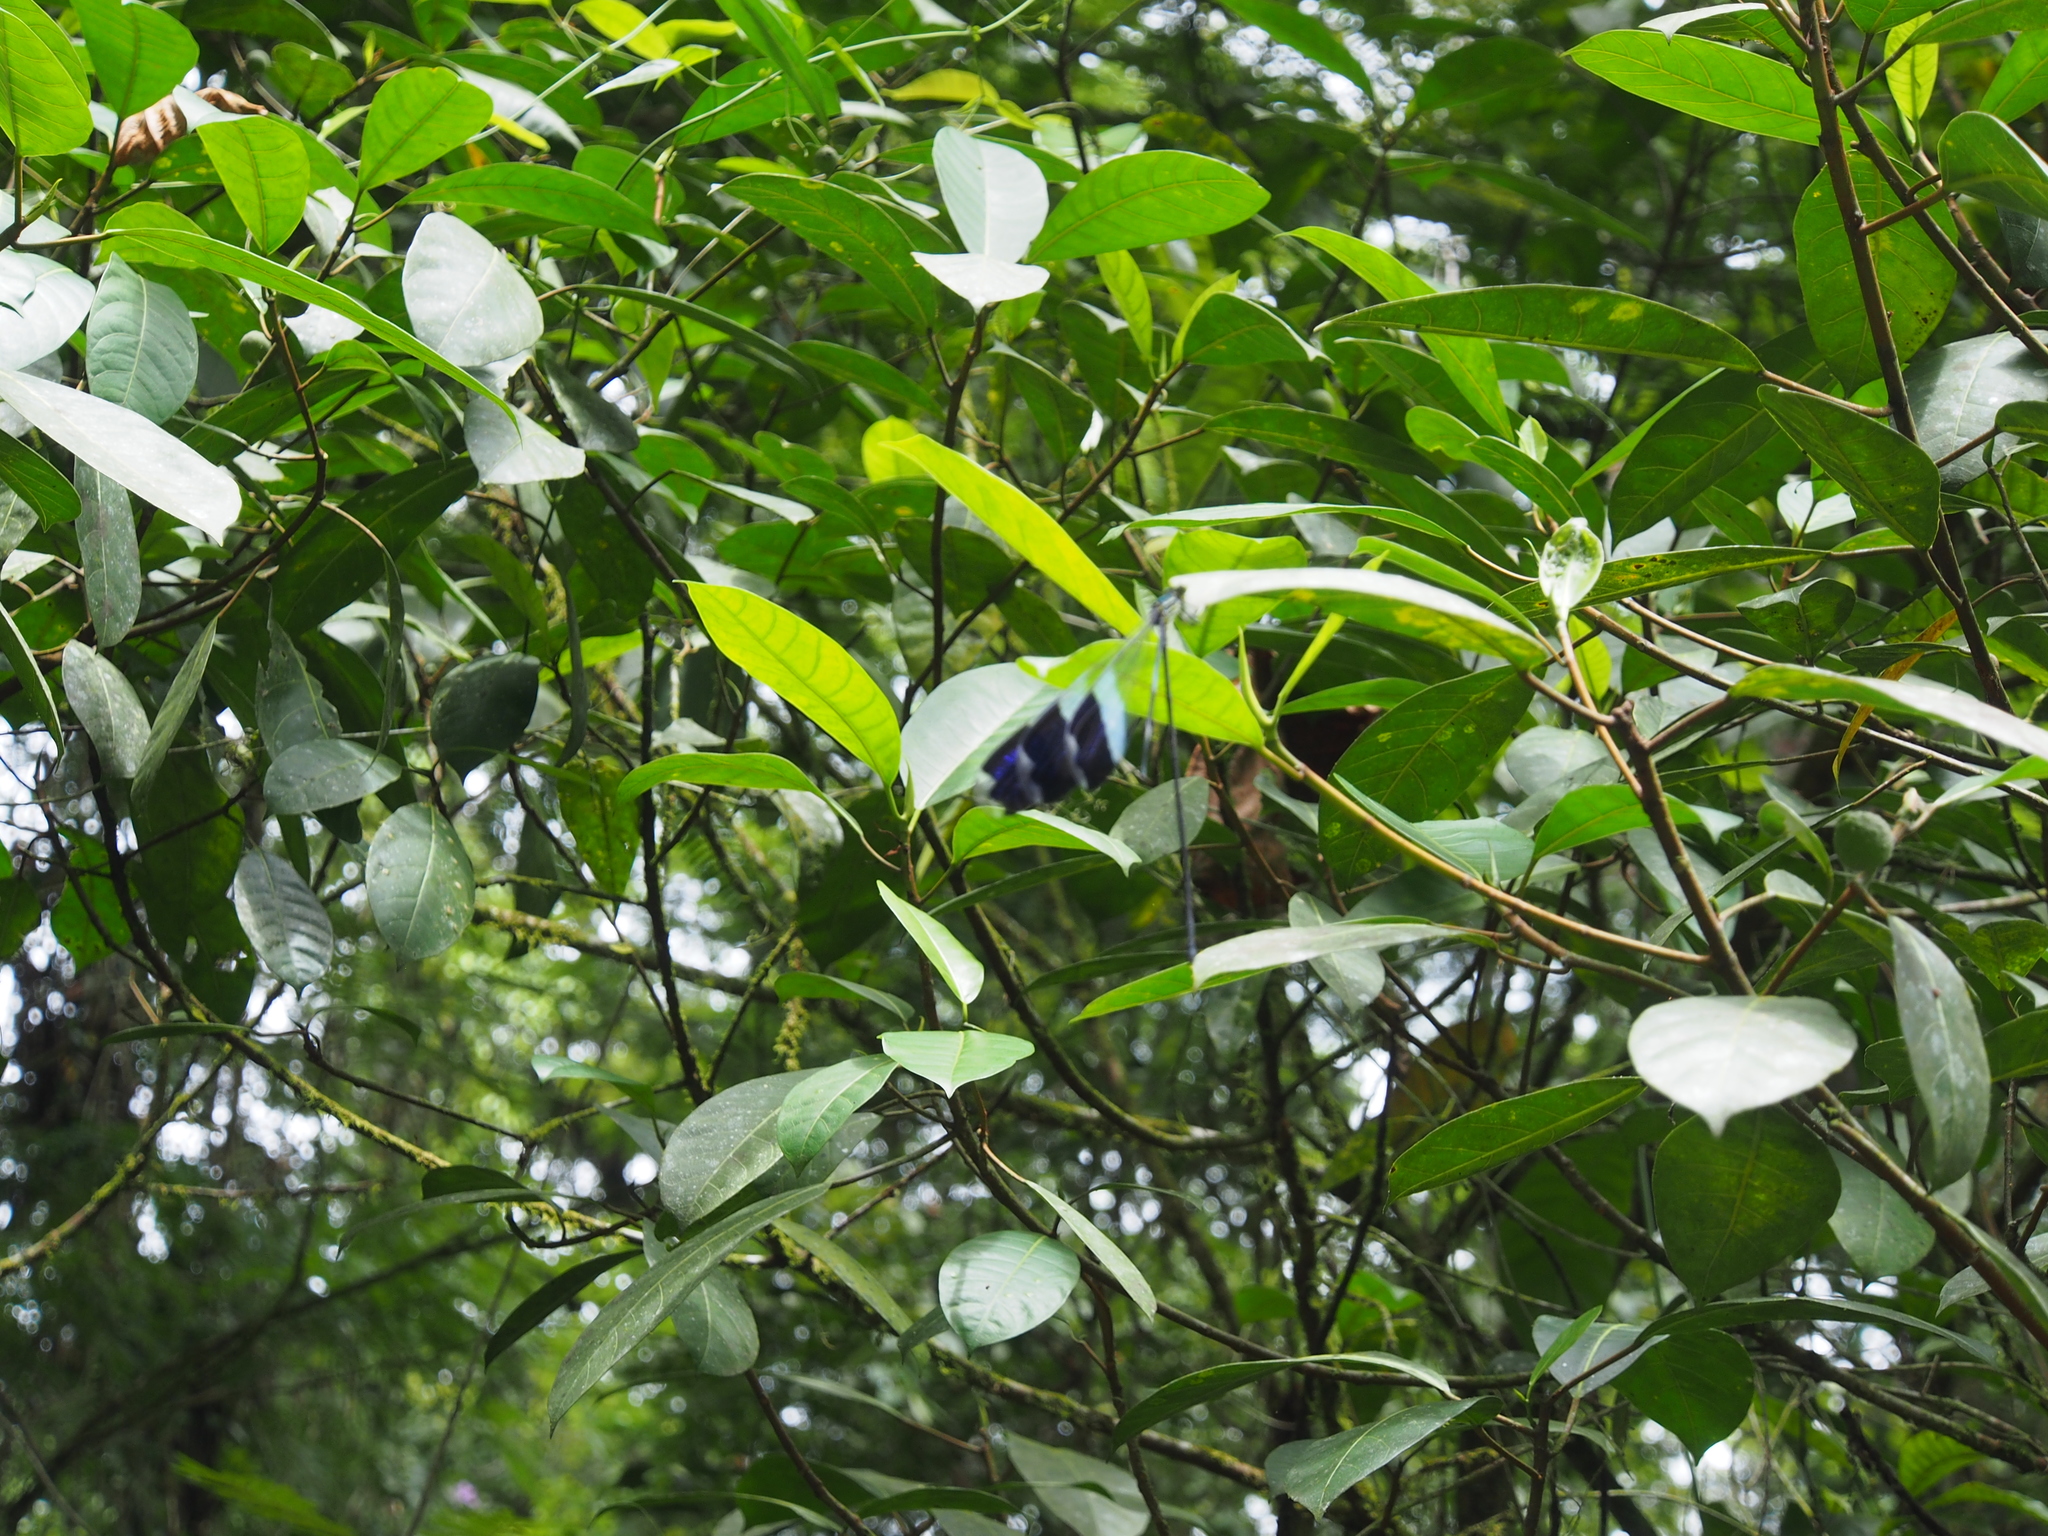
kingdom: Animalia
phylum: Arthropoda
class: Insecta
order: Odonata
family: Coenagrionidae
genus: Megaloprepus
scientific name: Megaloprepus caerulatus
